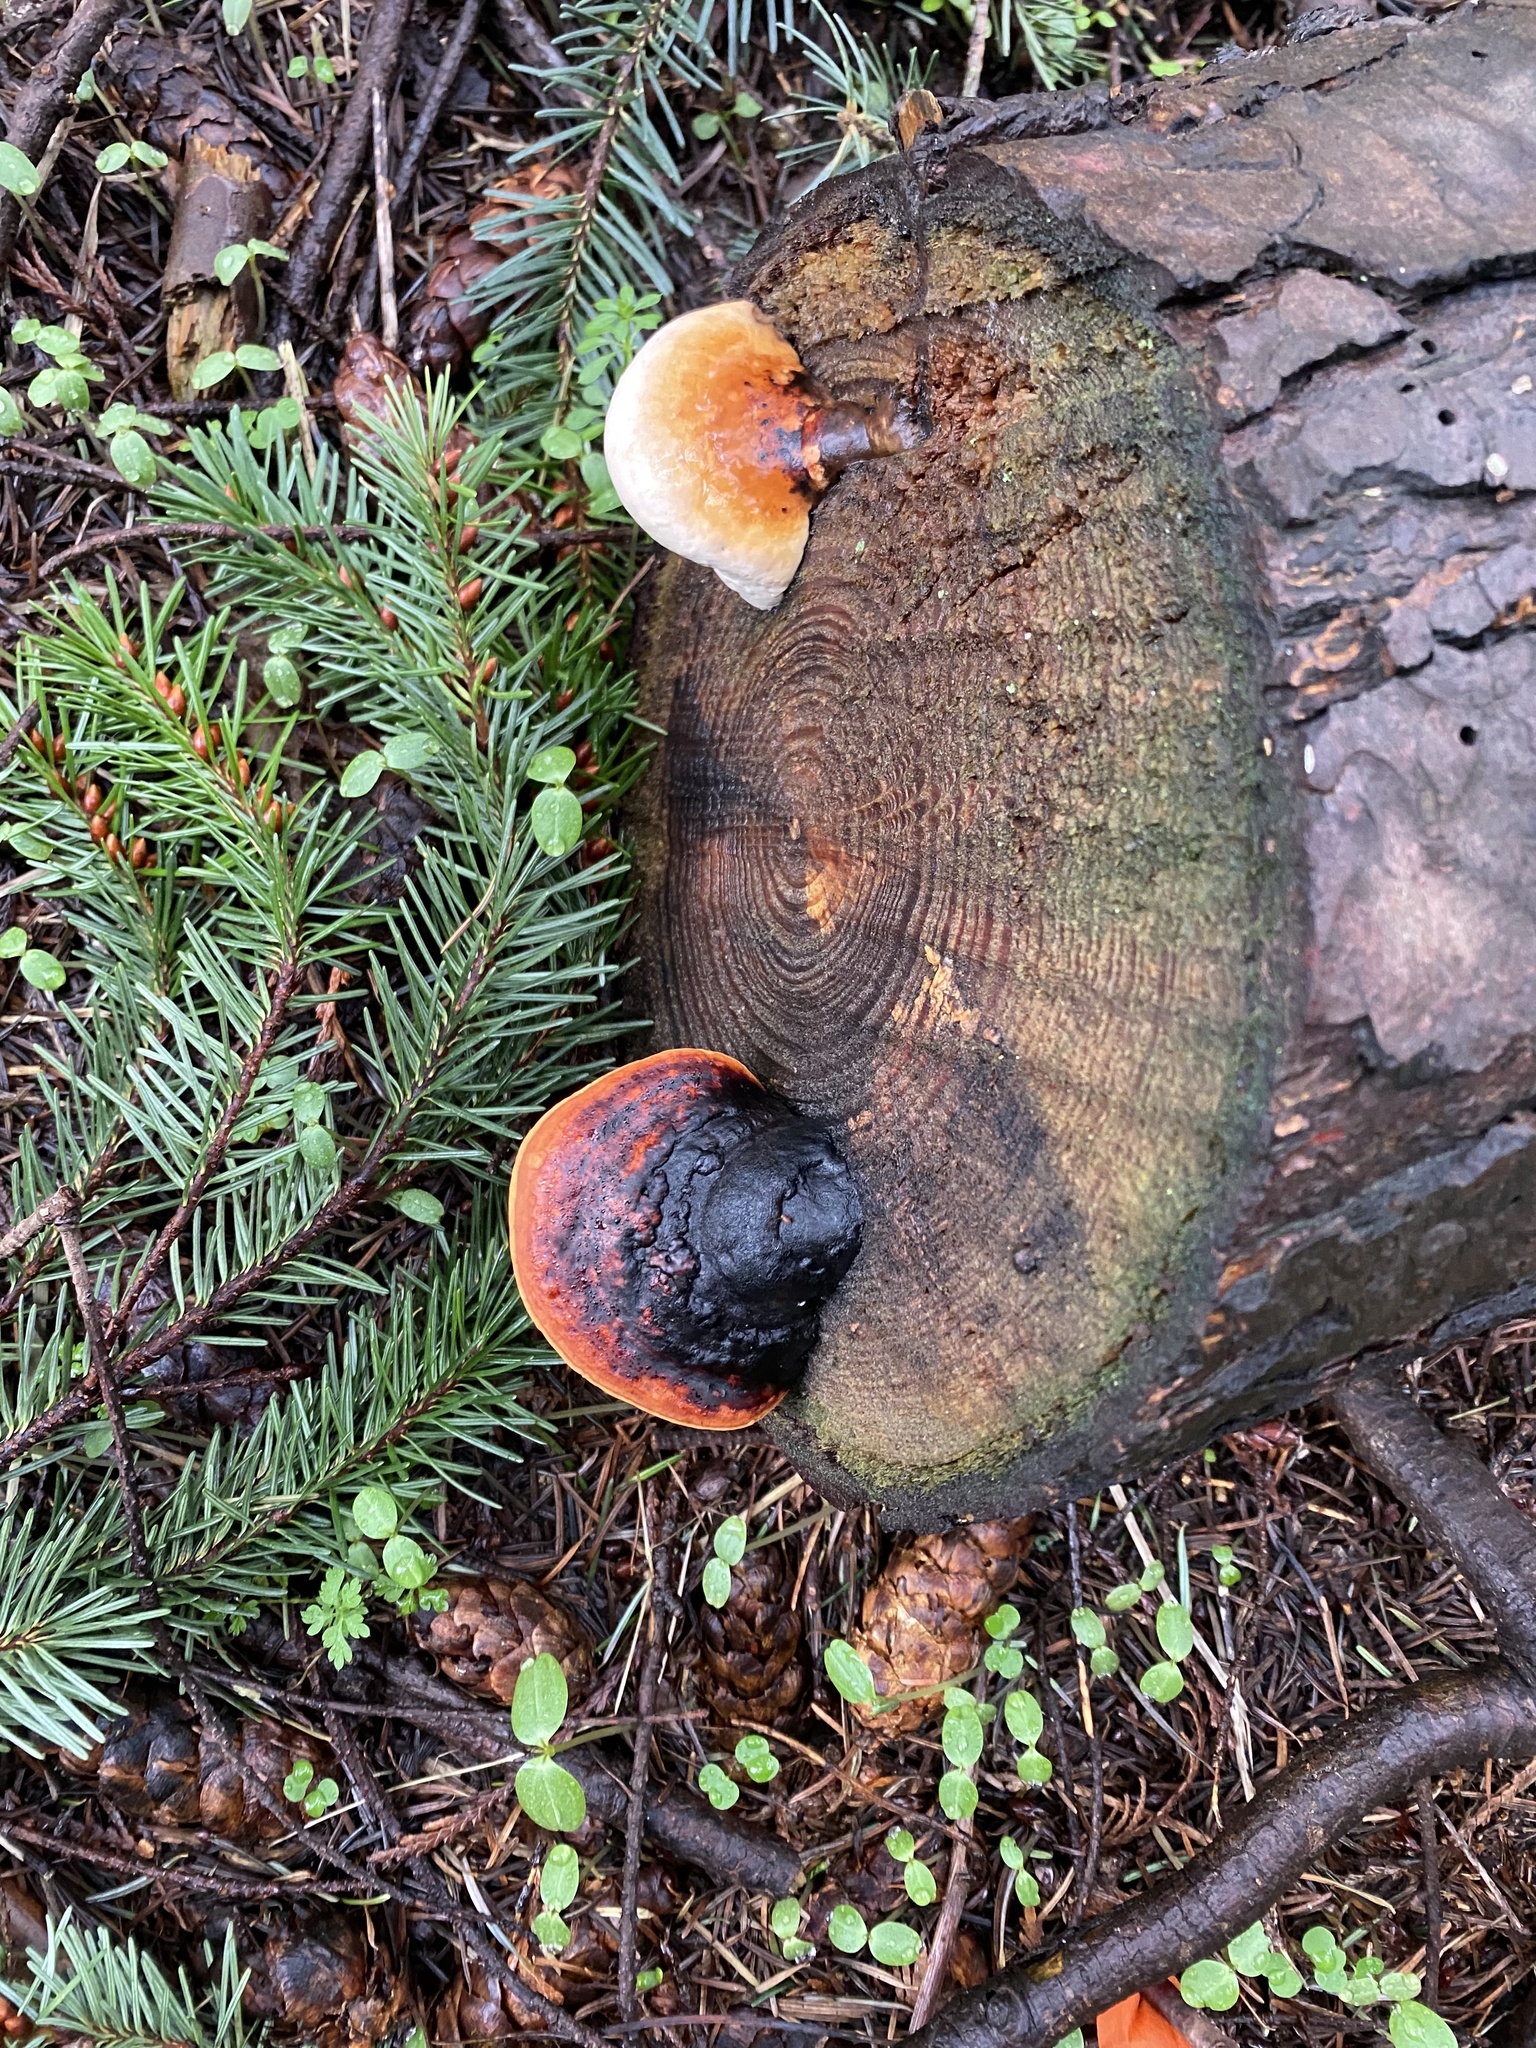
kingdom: Fungi
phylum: Basidiomycota
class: Agaricomycetes
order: Polyporales
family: Fomitopsidaceae
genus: Fomitopsis
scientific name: Fomitopsis mounceae
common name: Northern red belt
